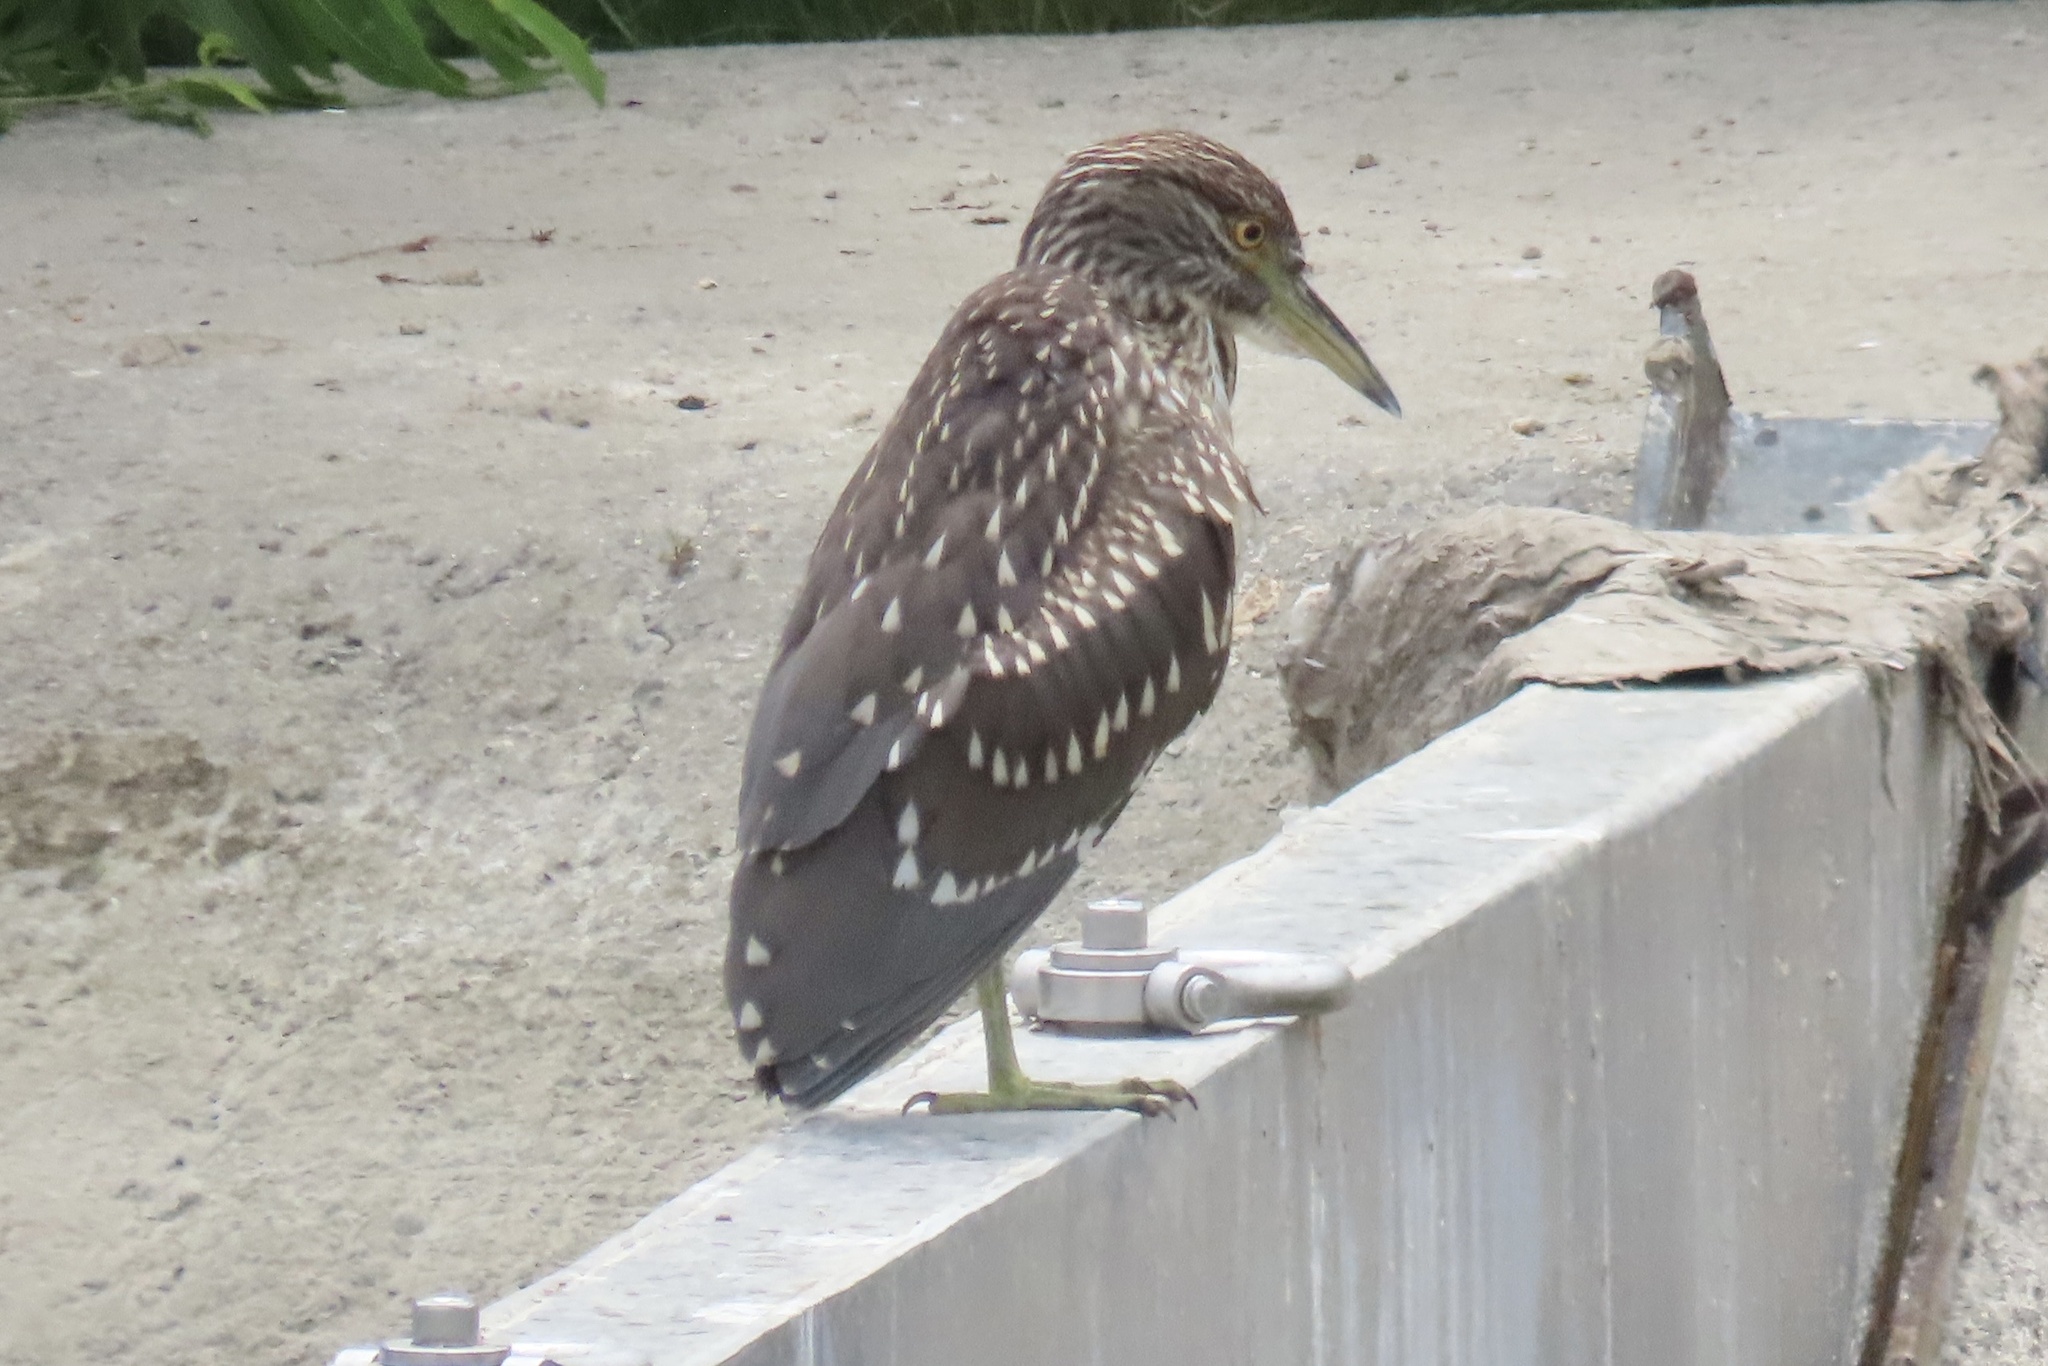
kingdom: Animalia
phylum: Chordata
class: Aves
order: Pelecaniformes
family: Ardeidae
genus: Nycticorax
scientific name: Nycticorax nycticorax
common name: Black-crowned night heron
